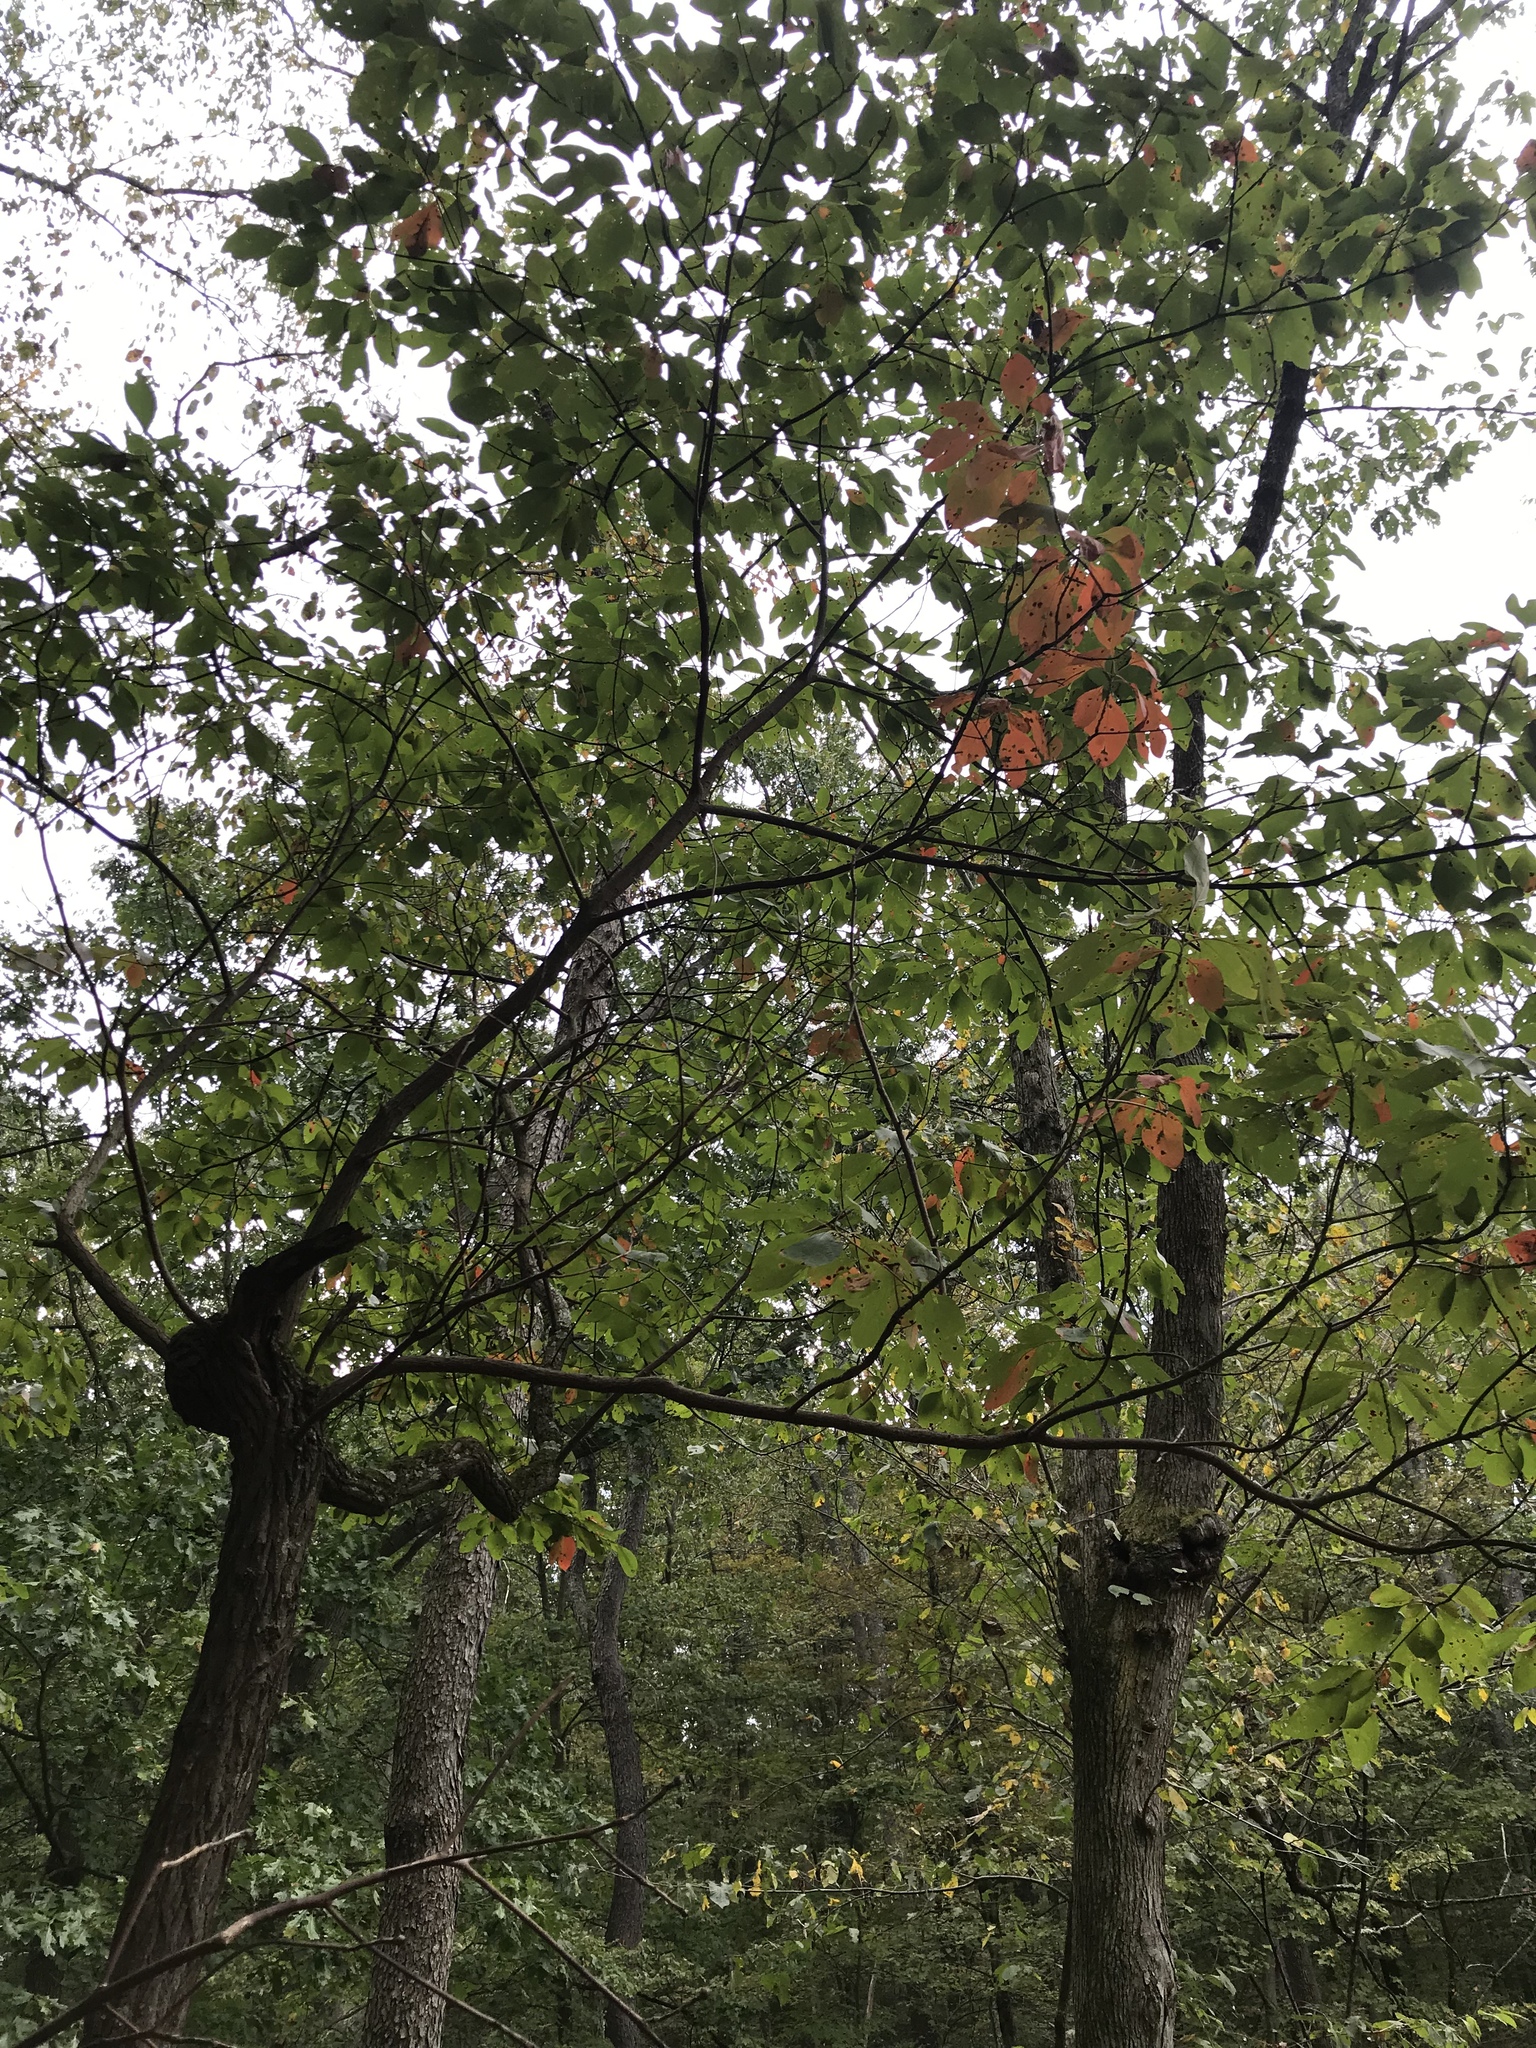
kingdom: Plantae
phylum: Tracheophyta
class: Magnoliopsida
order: Laurales
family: Lauraceae
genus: Sassafras
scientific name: Sassafras albidum
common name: Sassafras
